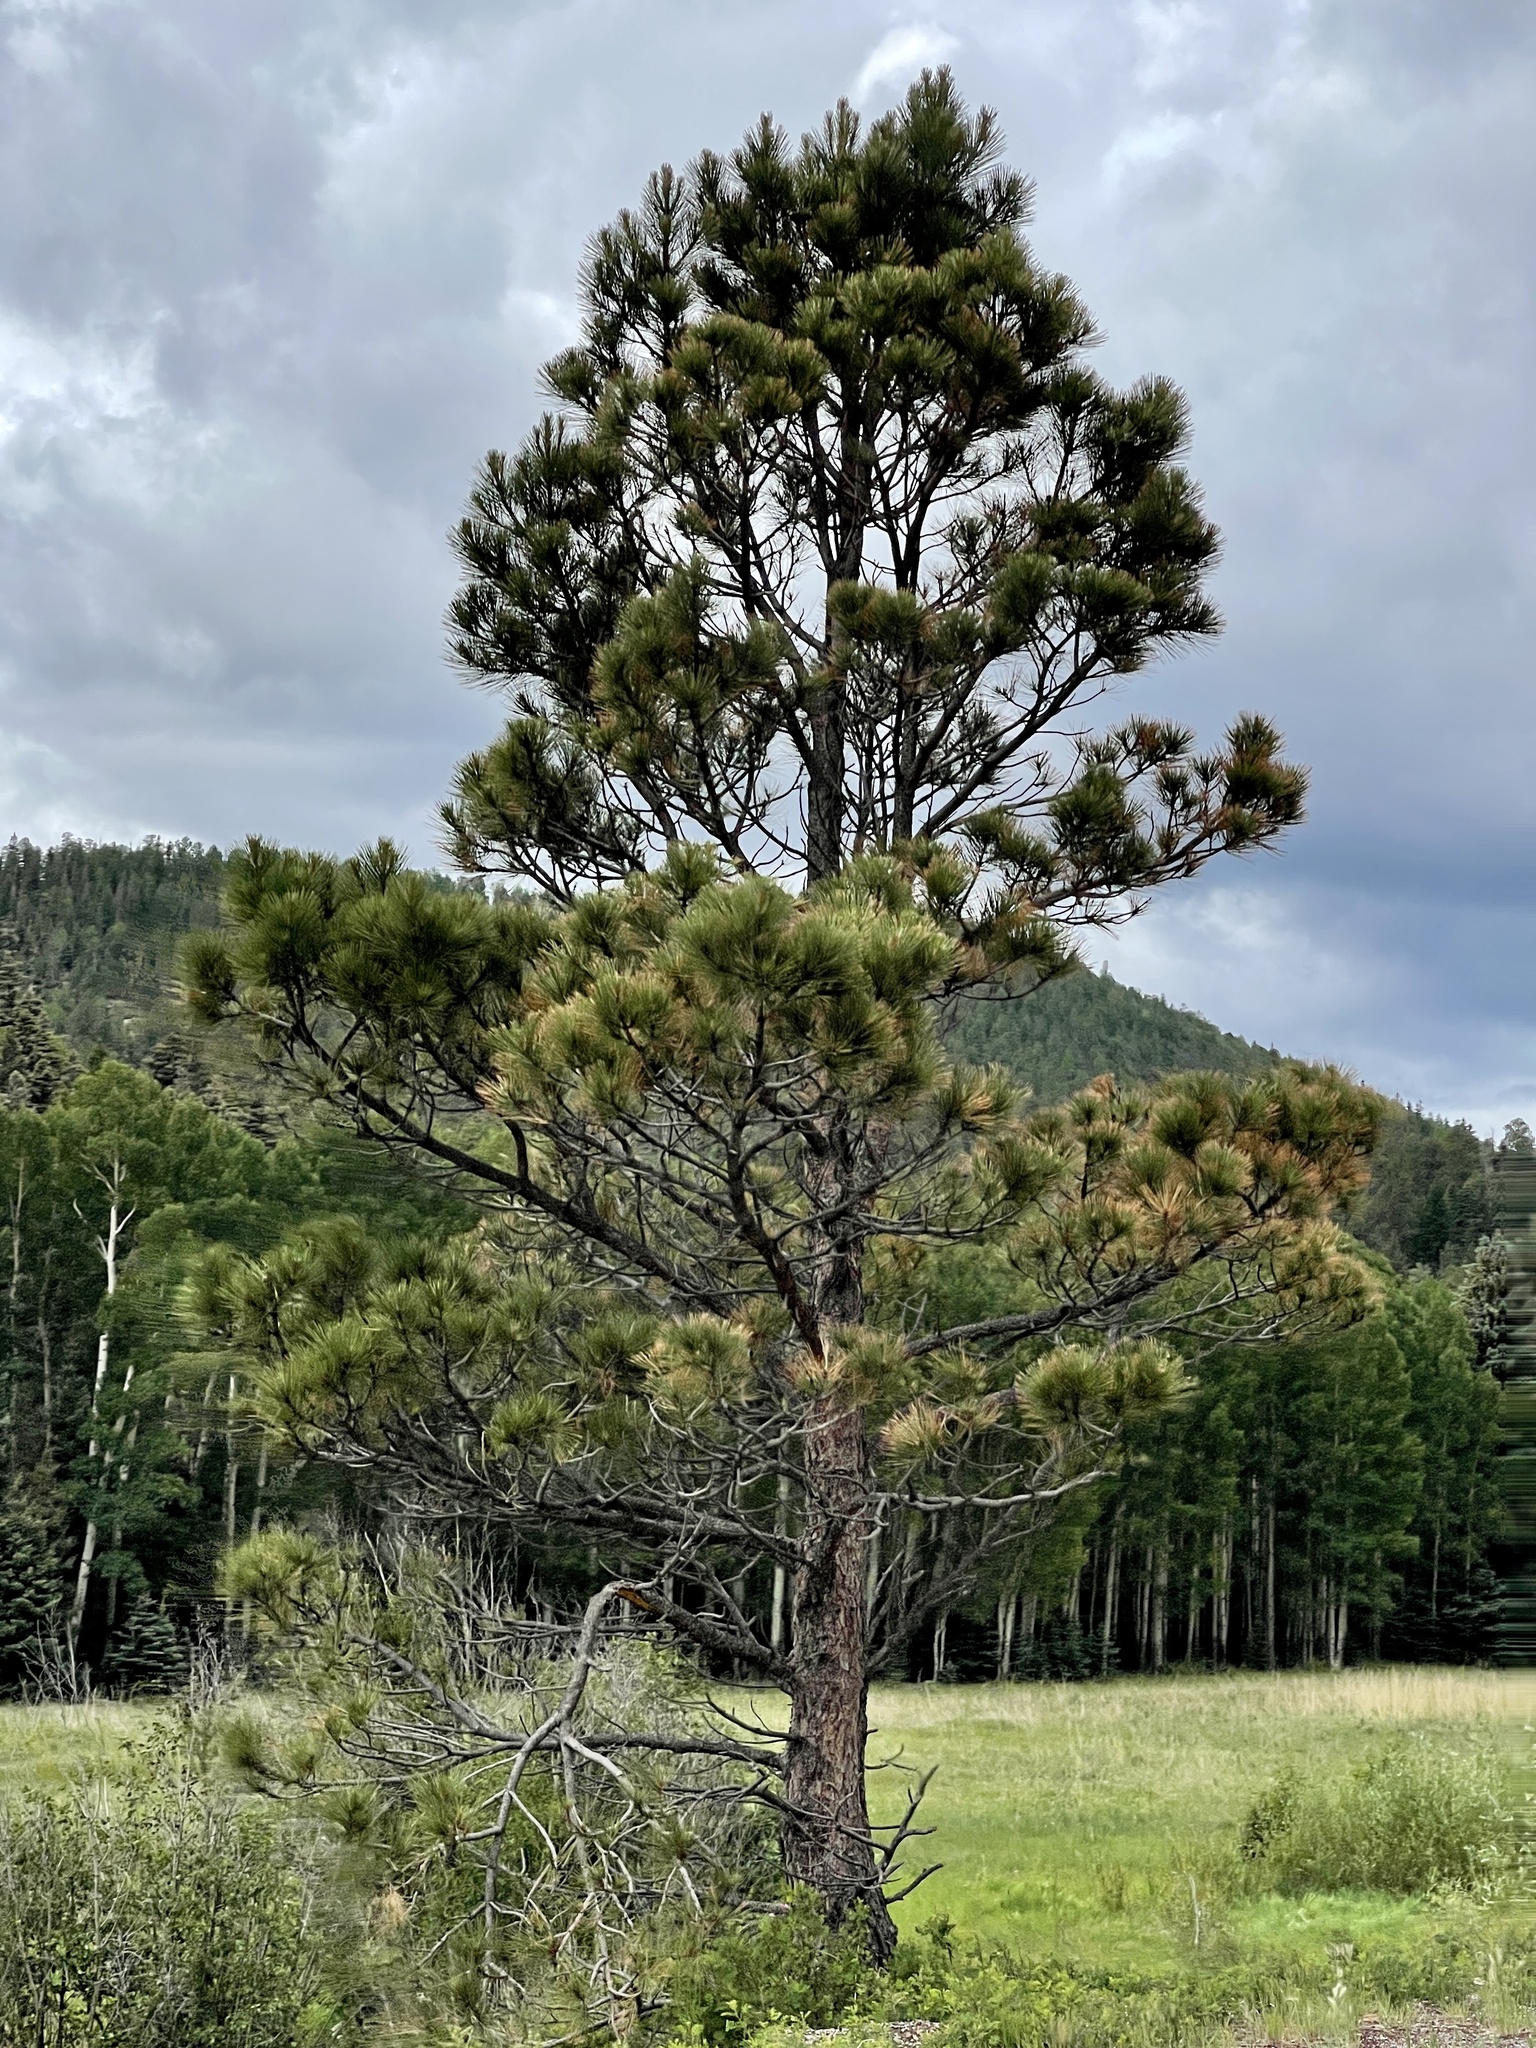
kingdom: Plantae
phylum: Tracheophyta
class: Pinopsida
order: Pinales
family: Pinaceae
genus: Pinus
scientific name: Pinus ponderosa
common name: Western yellow-pine
